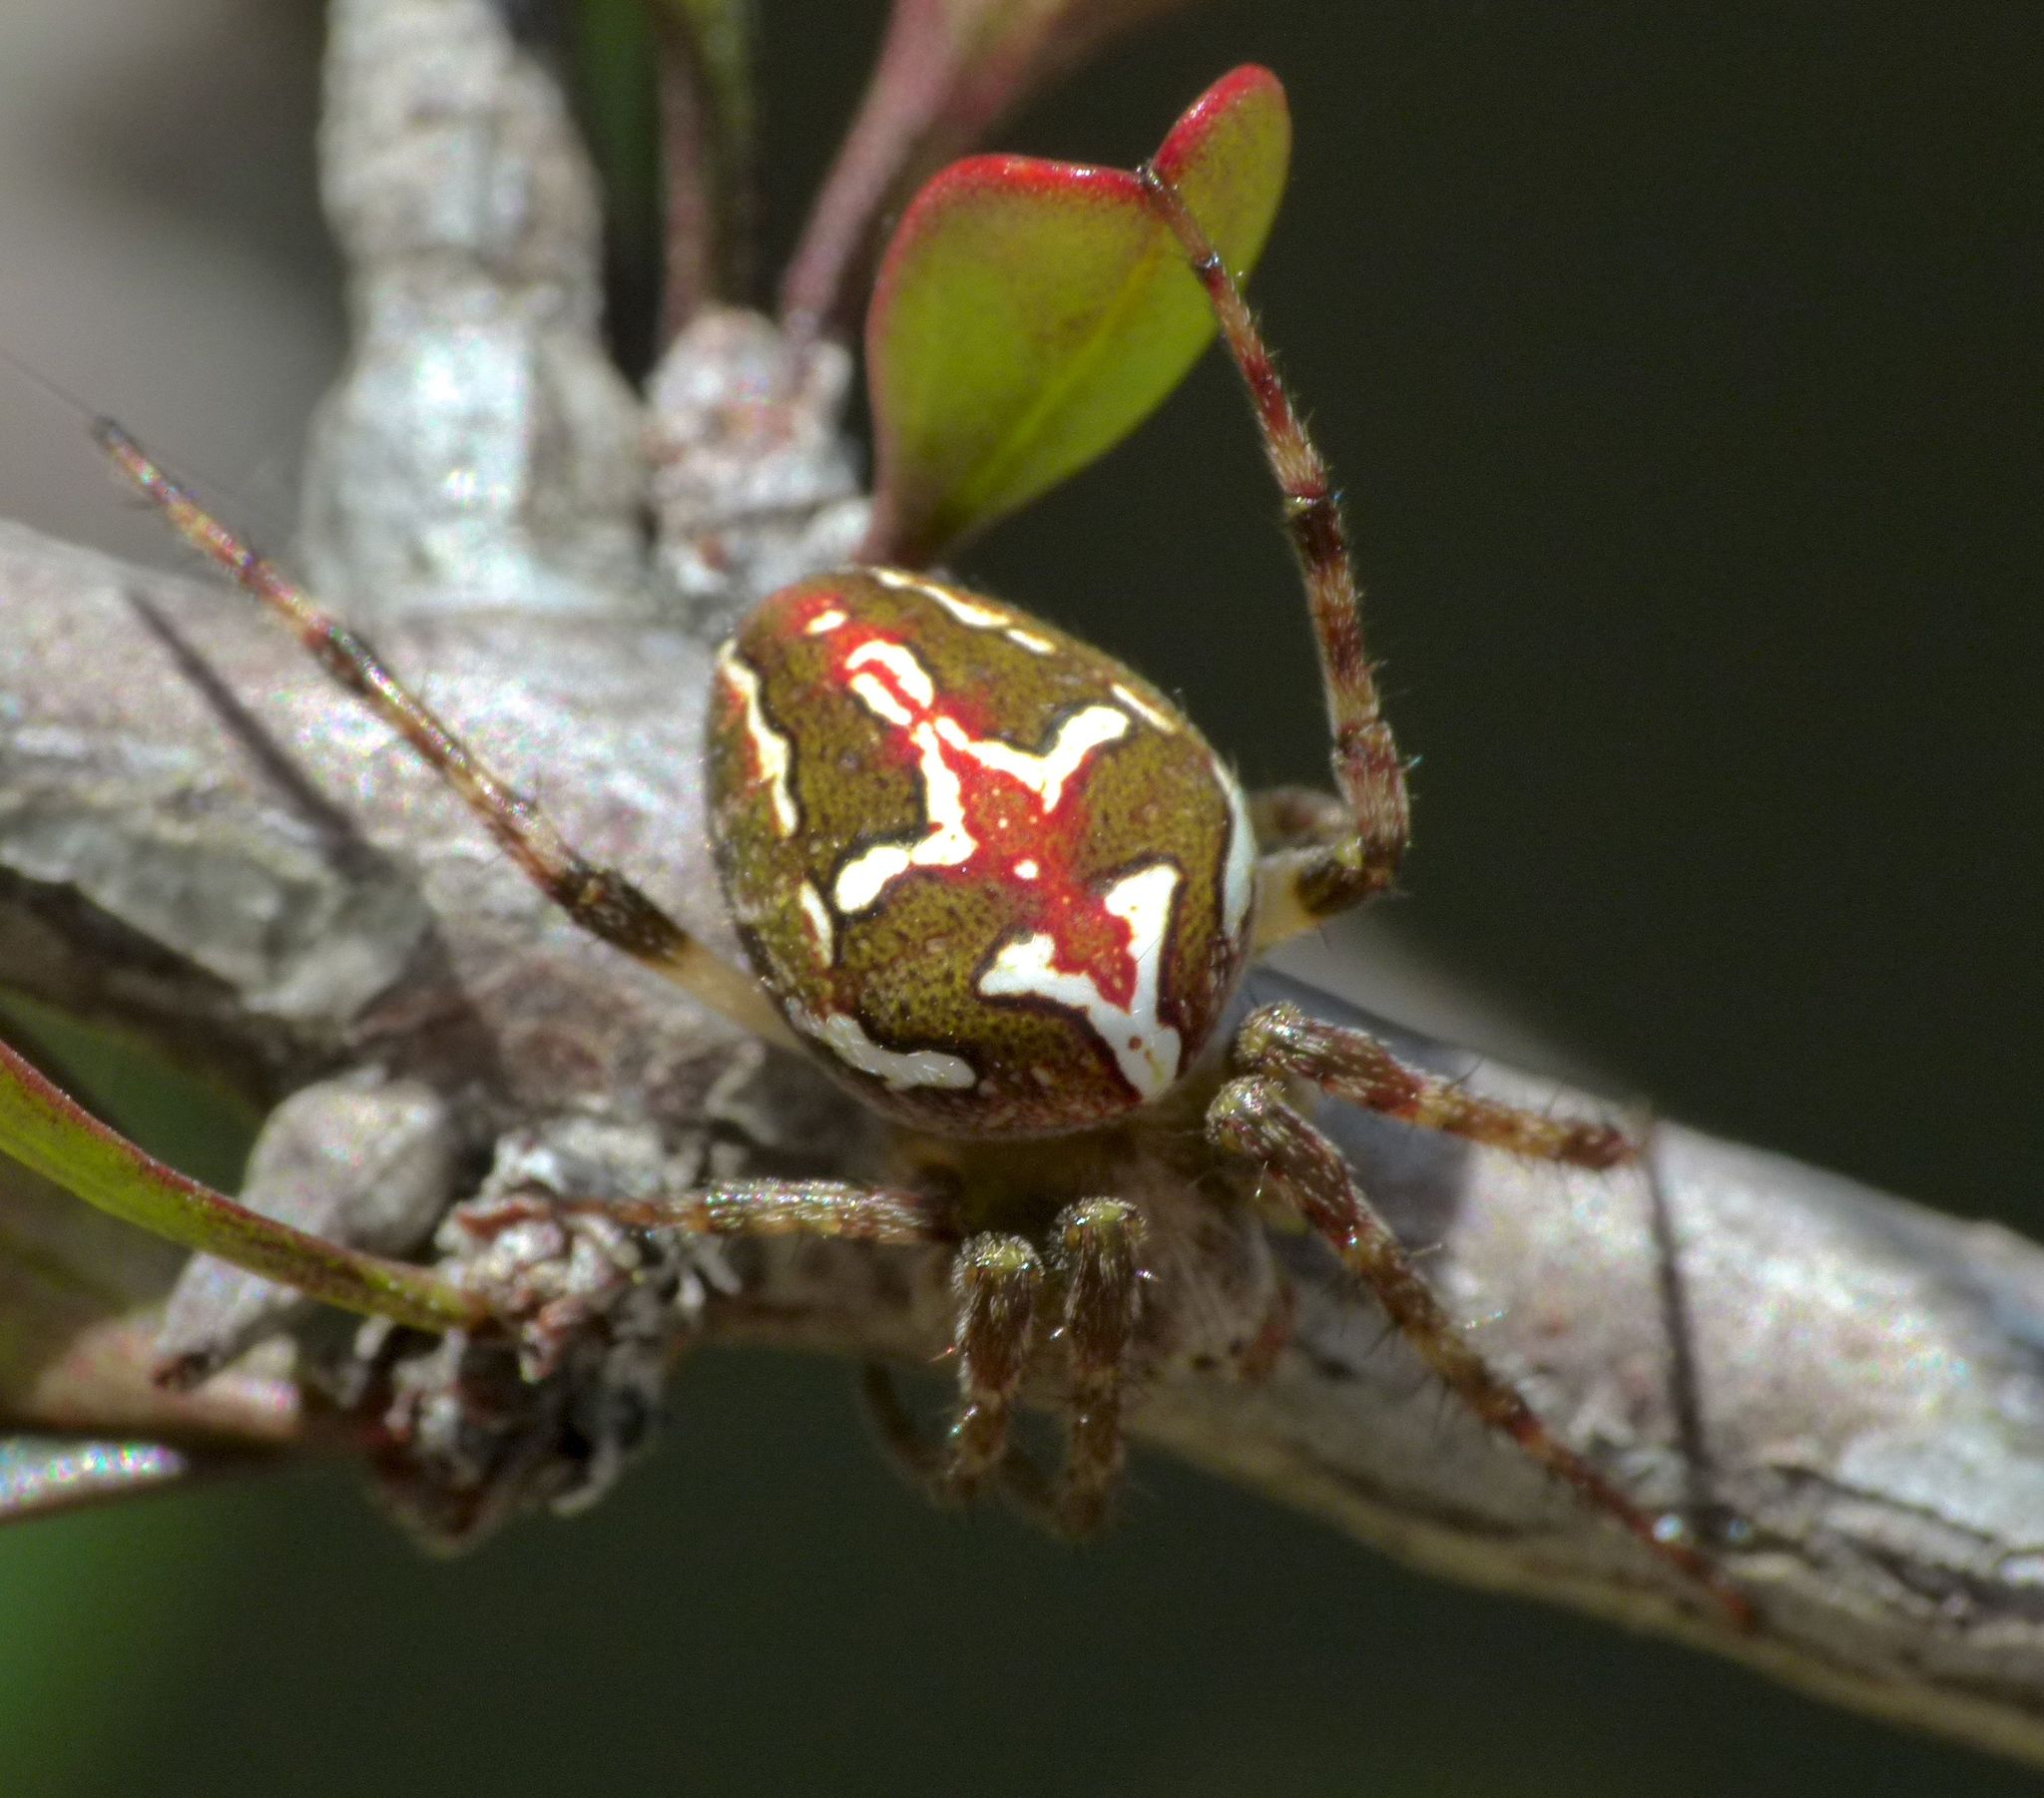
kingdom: Animalia
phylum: Arthropoda
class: Arachnida
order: Araneae
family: Araneidae
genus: Colaranea
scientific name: Colaranea verutum
